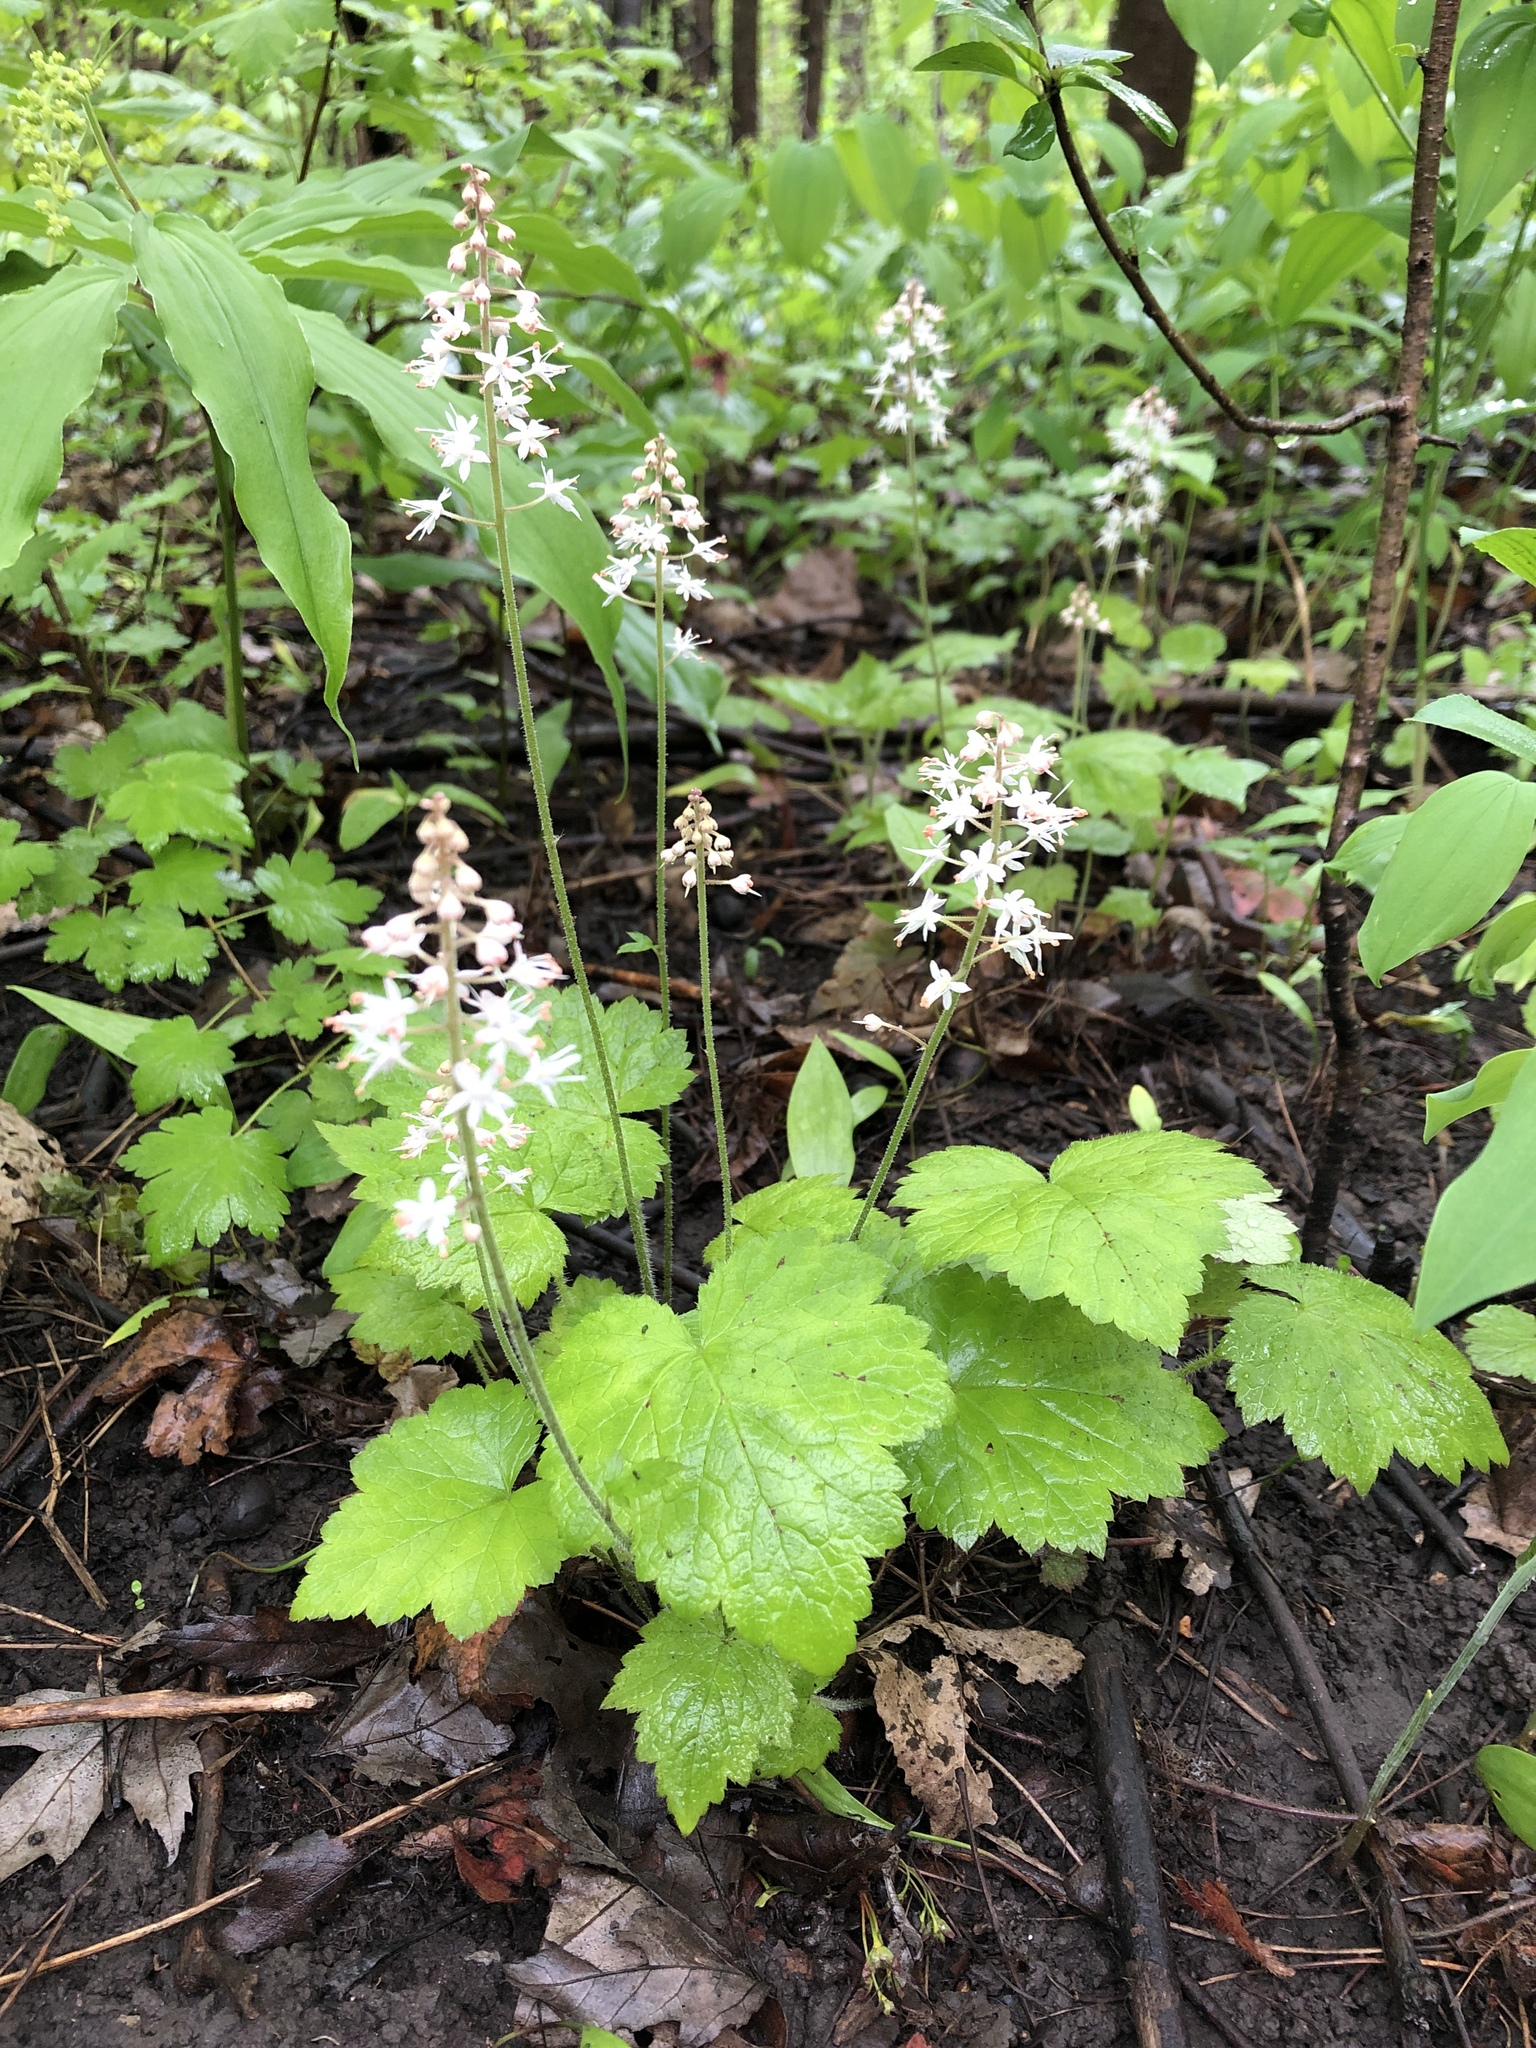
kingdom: Plantae
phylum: Tracheophyta
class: Magnoliopsida
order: Saxifragales
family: Saxifragaceae
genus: Tiarella
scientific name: Tiarella stolonifera
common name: Stoloniferous foamflower
